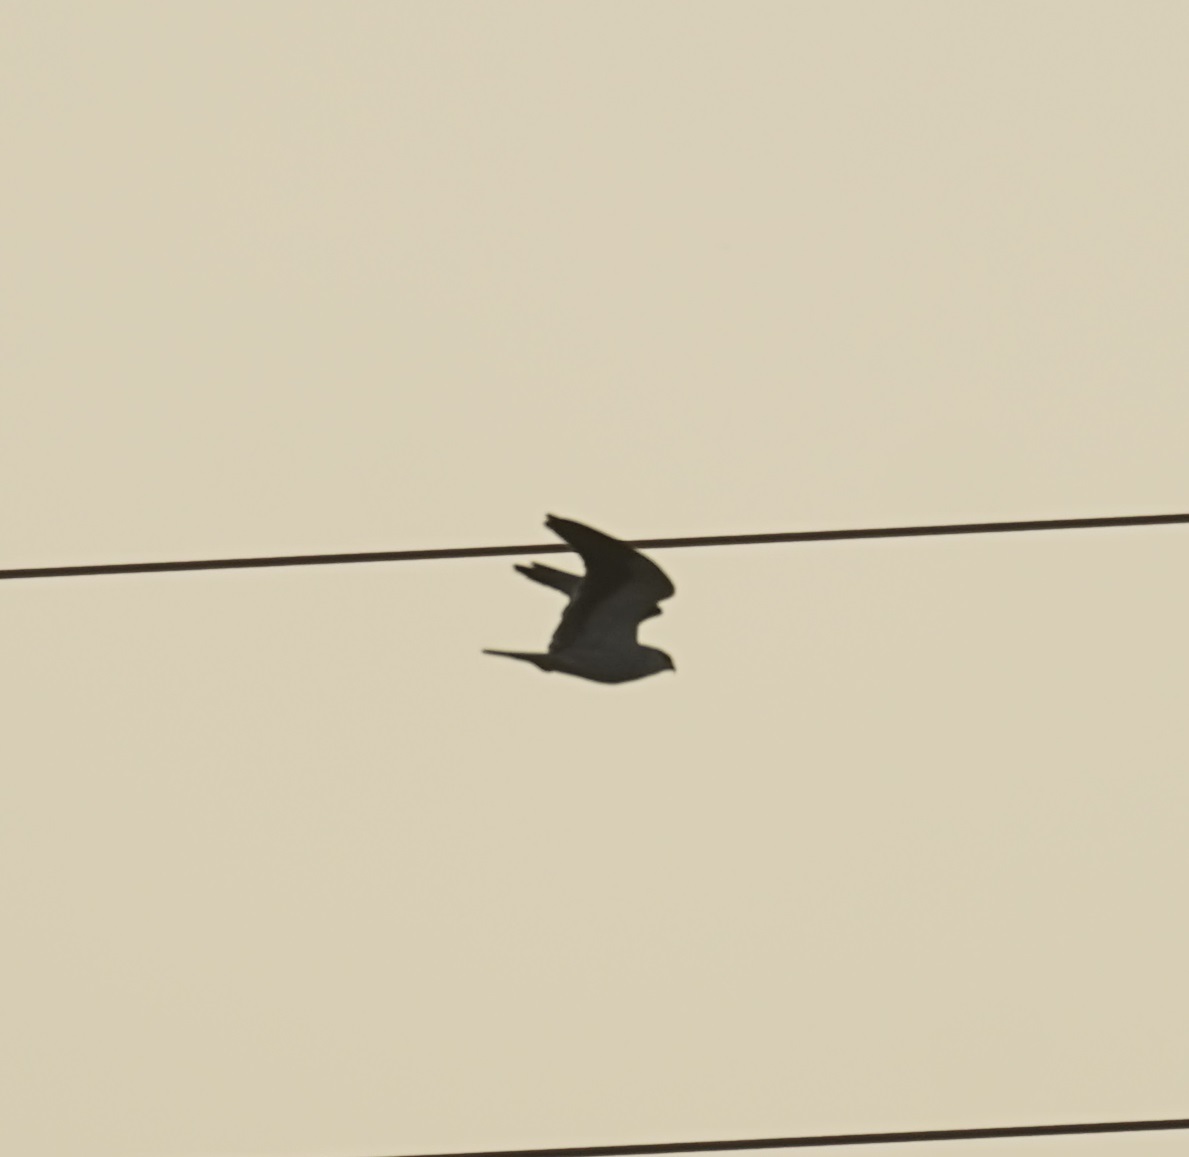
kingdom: Animalia
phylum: Chordata
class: Aves
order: Accipitriformes
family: Accipitridae
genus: Elanus
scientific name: Elanus caeruleus
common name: Black-winged kite
